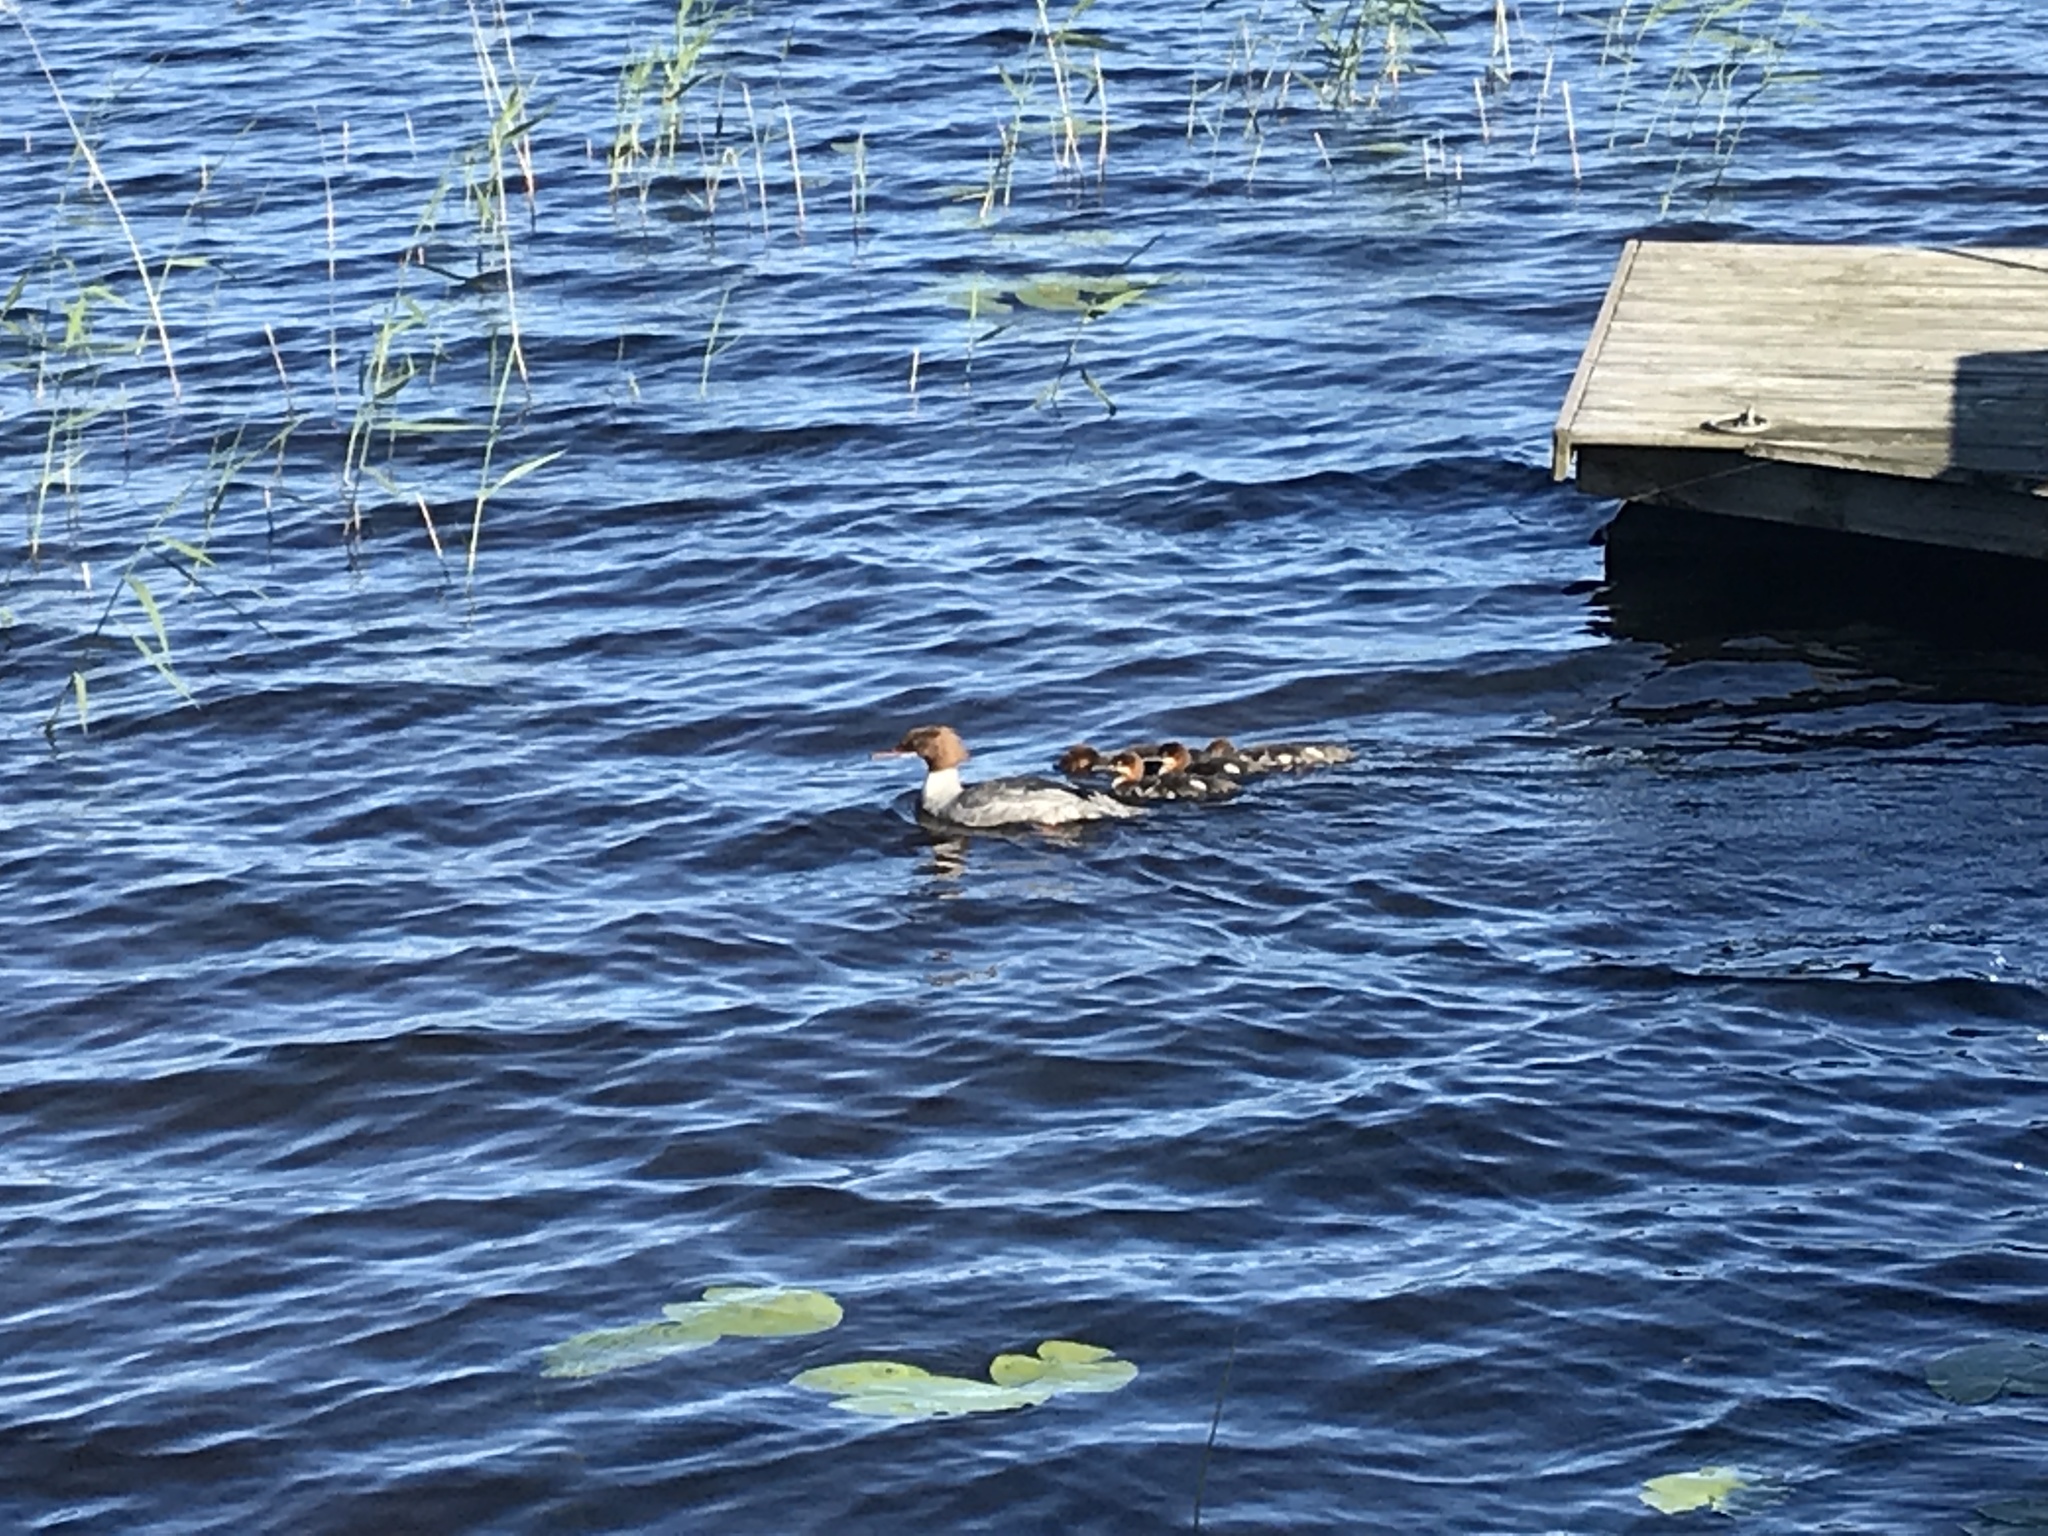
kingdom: Animalia
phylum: Chordata
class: Aves
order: Anseriformes
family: Anatidae
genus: Mergus
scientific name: Mergus merganser
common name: Common merganser
